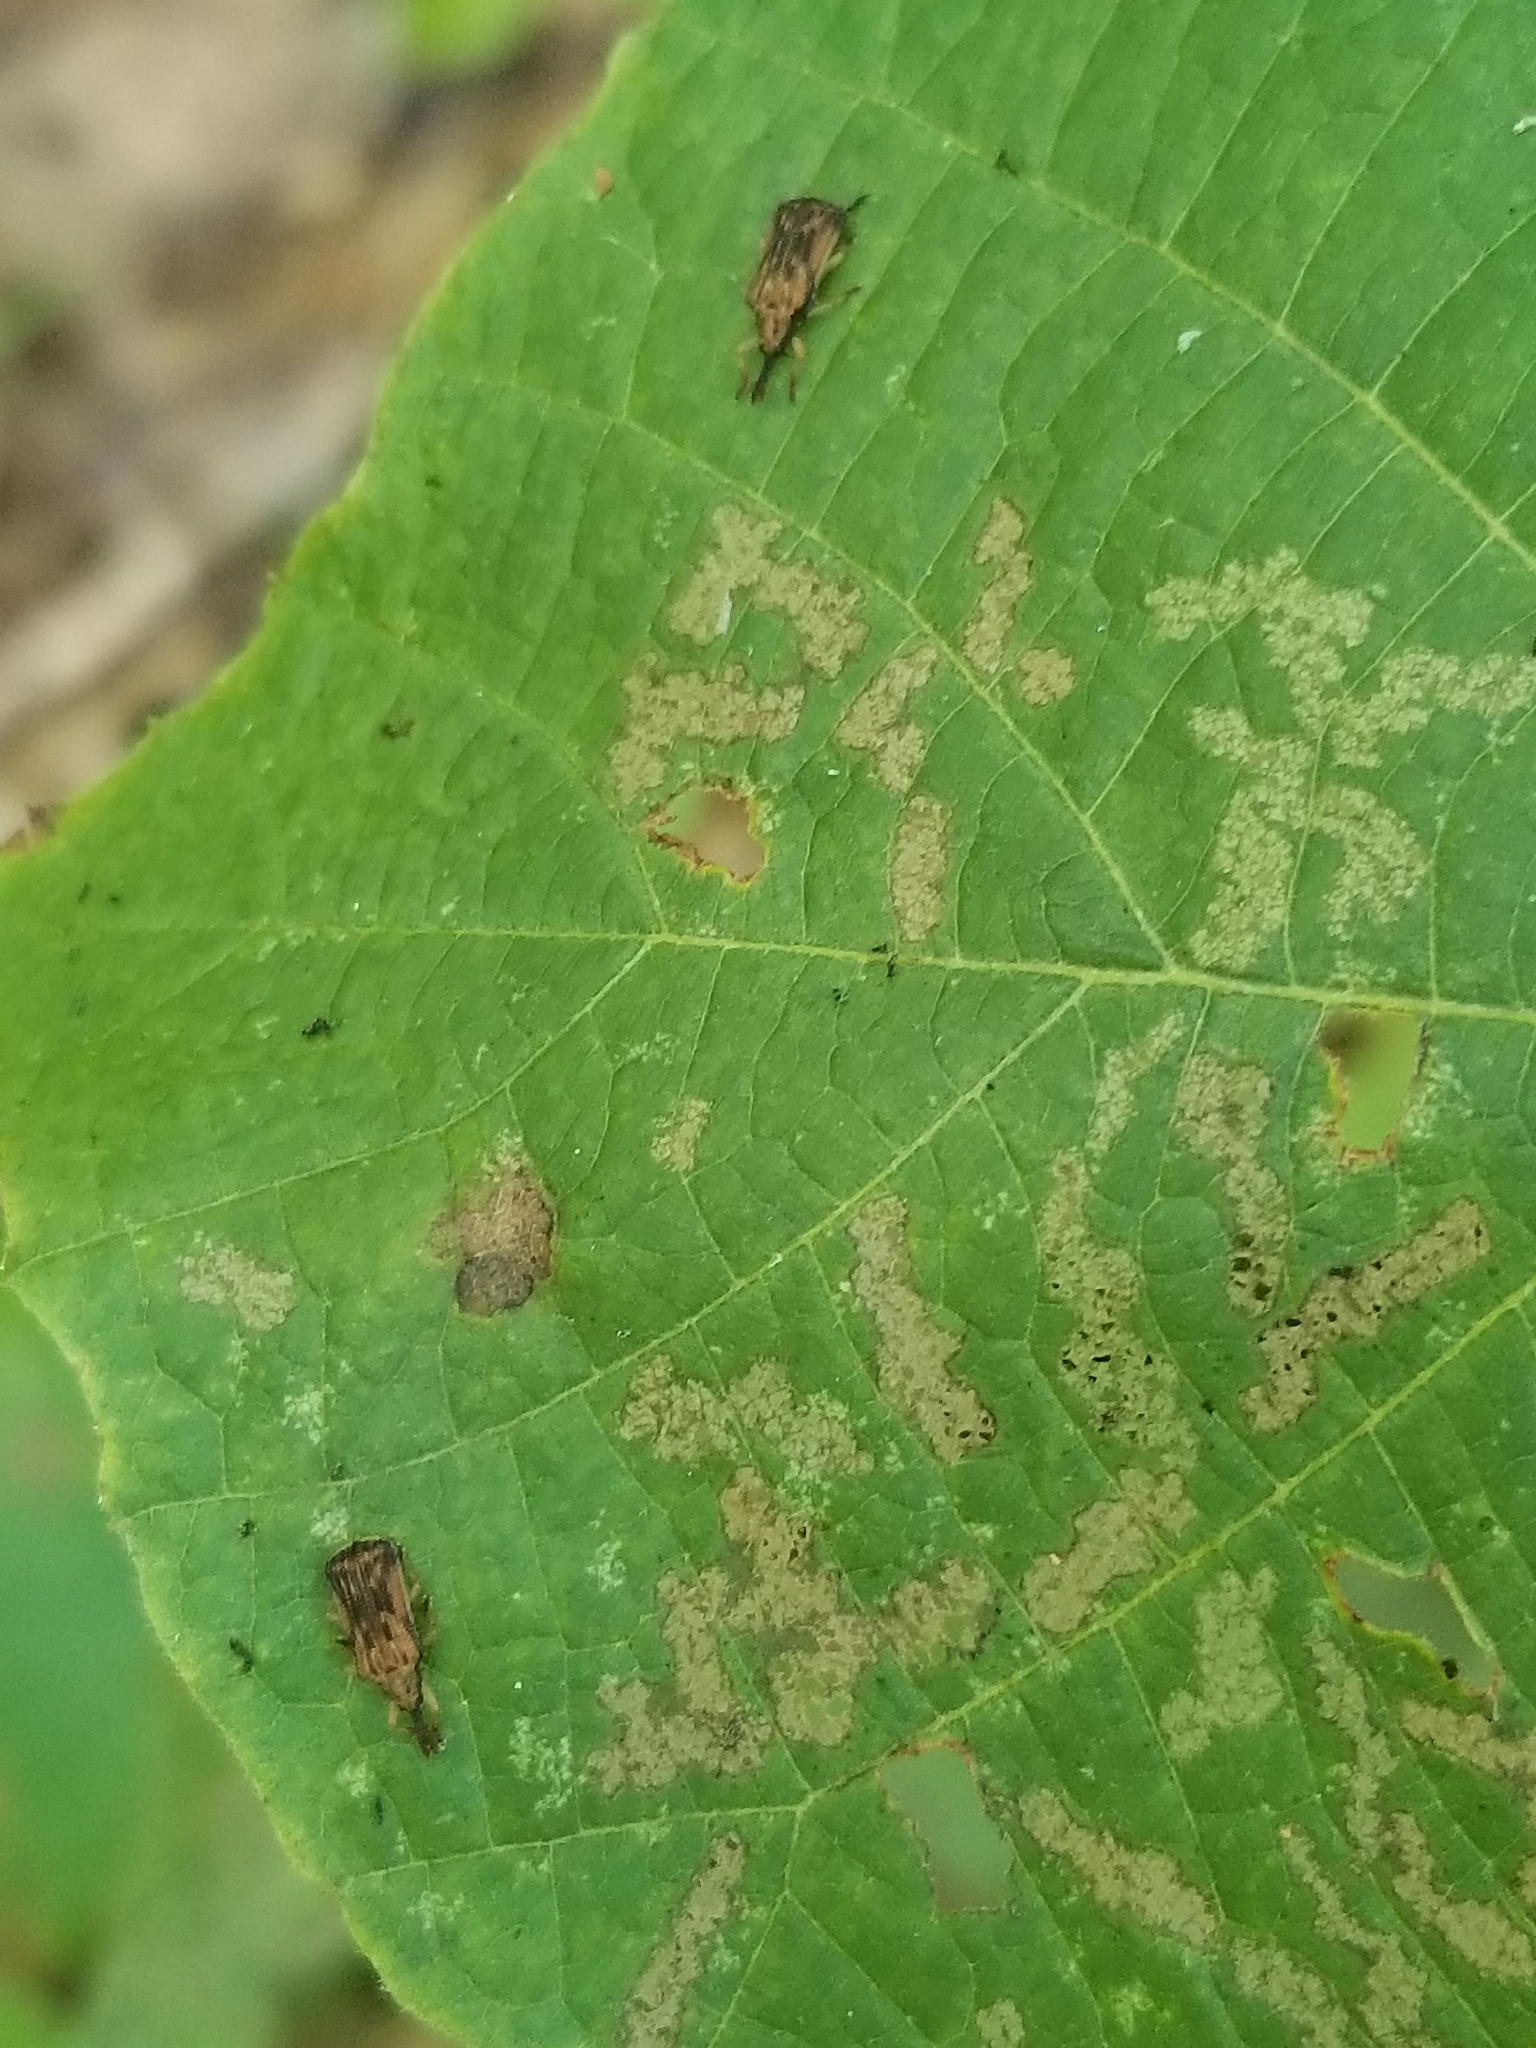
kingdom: Animalia
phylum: Arthropoda
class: Insecta
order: Coleoptera
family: Chrysomelidae
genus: Baliosus
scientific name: Baliosus nervosus
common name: Basswood leaf miner
